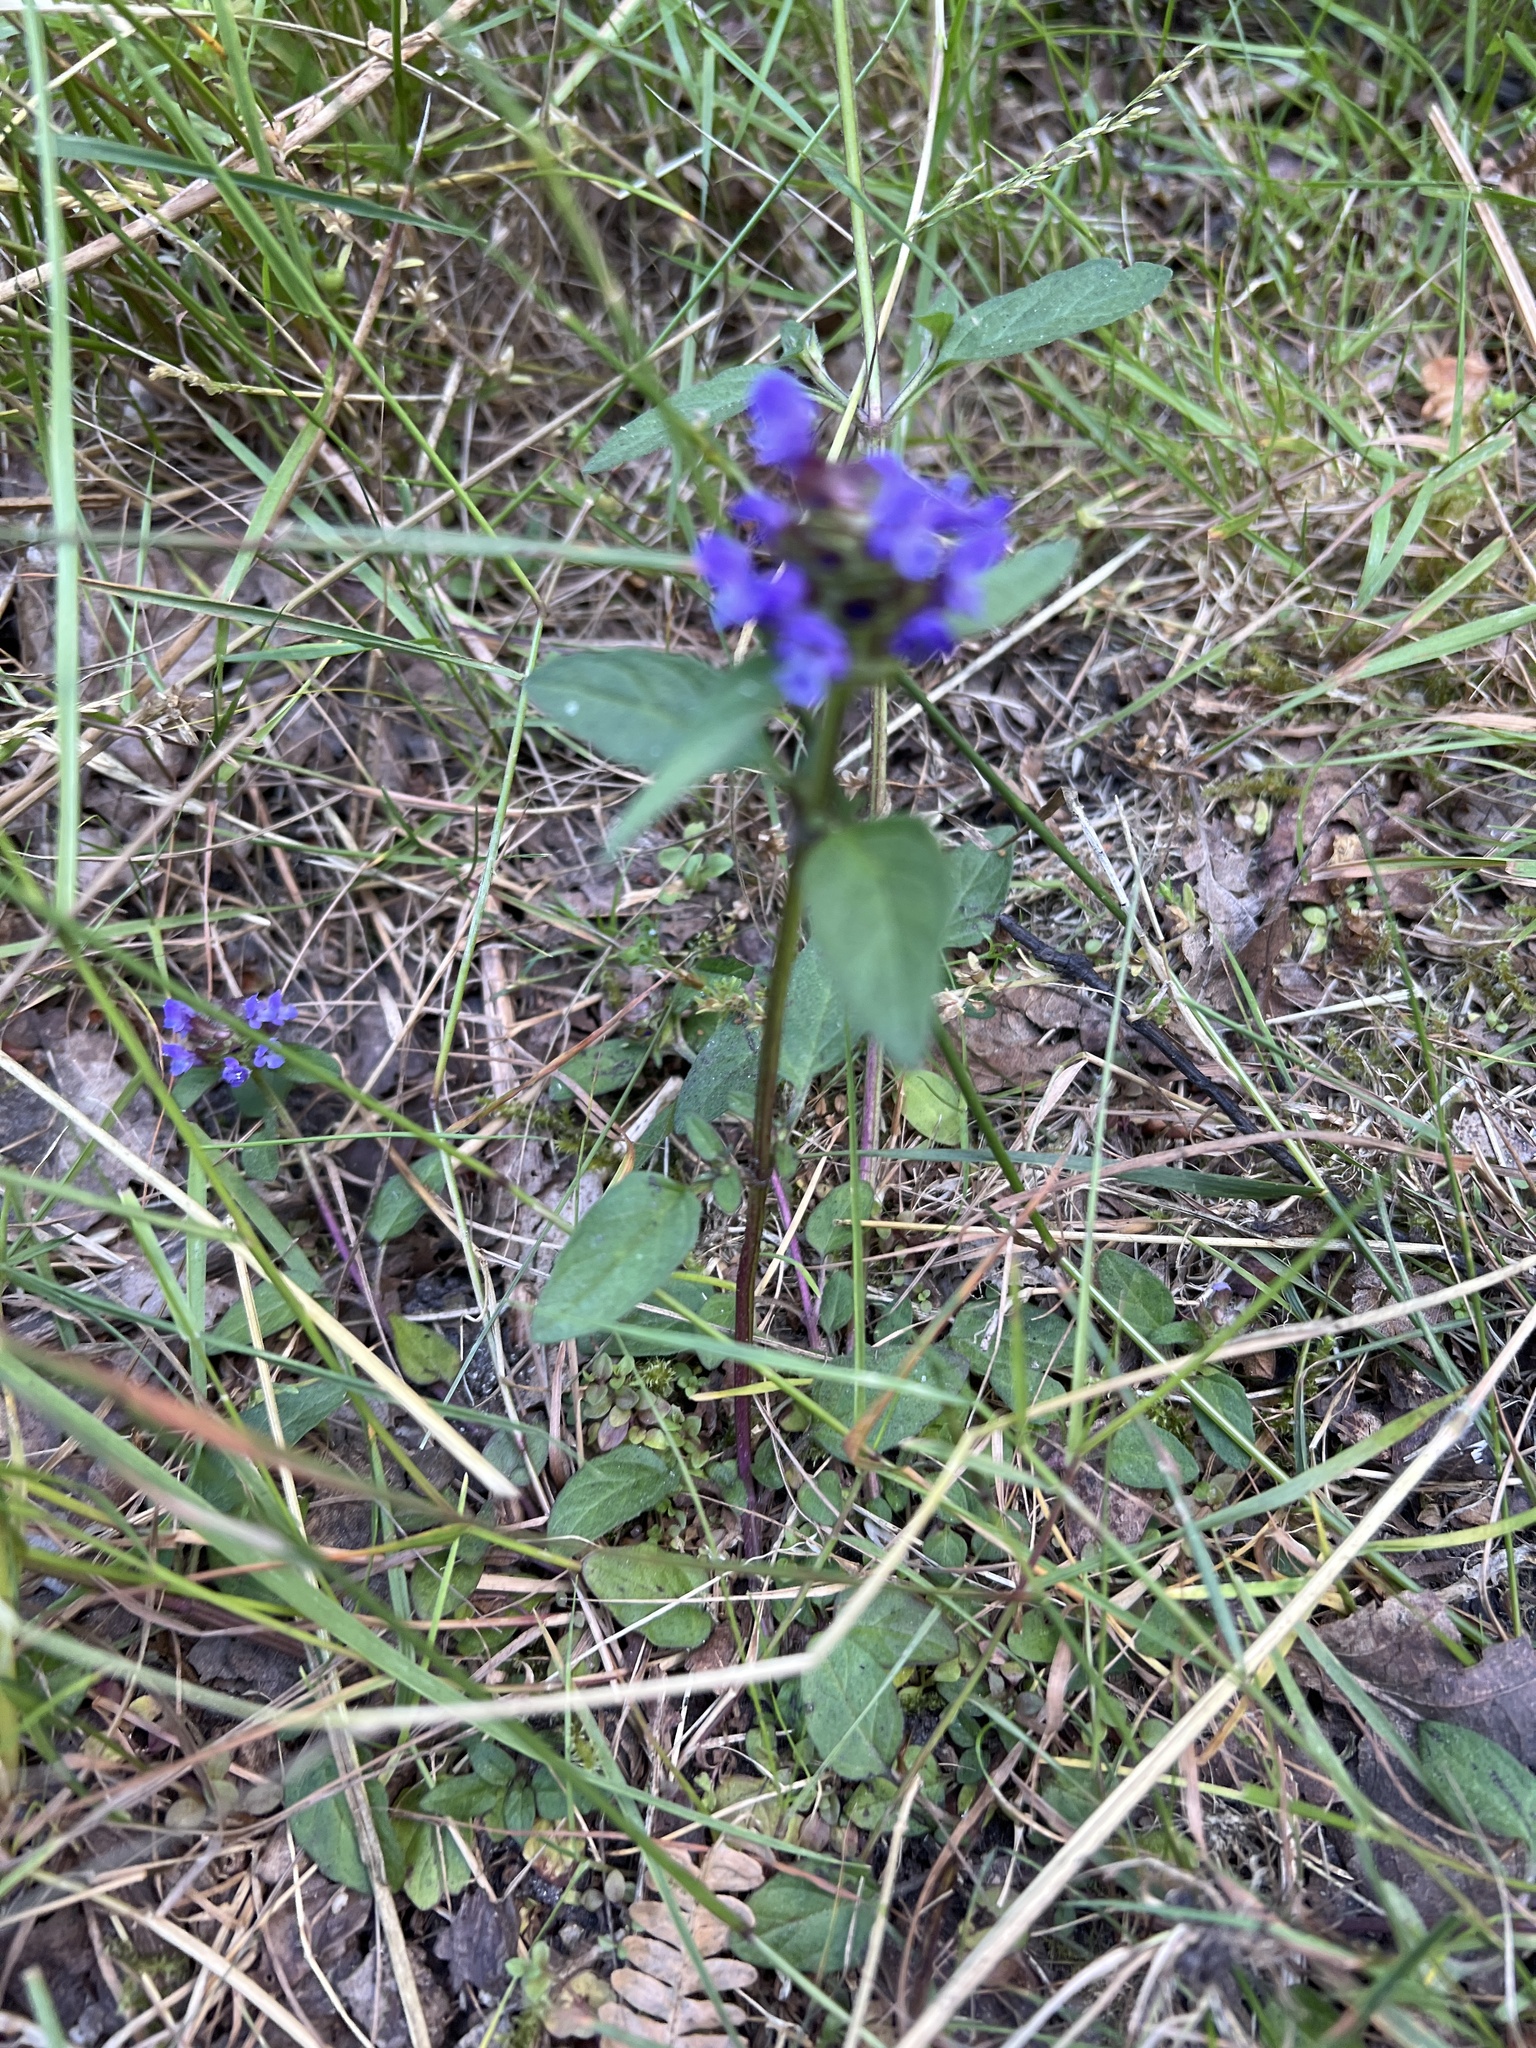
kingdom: Plantae
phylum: Tracheophyta
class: Magnoliopsida
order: Lamiales
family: Lamiaceae
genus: Prunella
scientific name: Prunella vulgaris
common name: Heal-all
